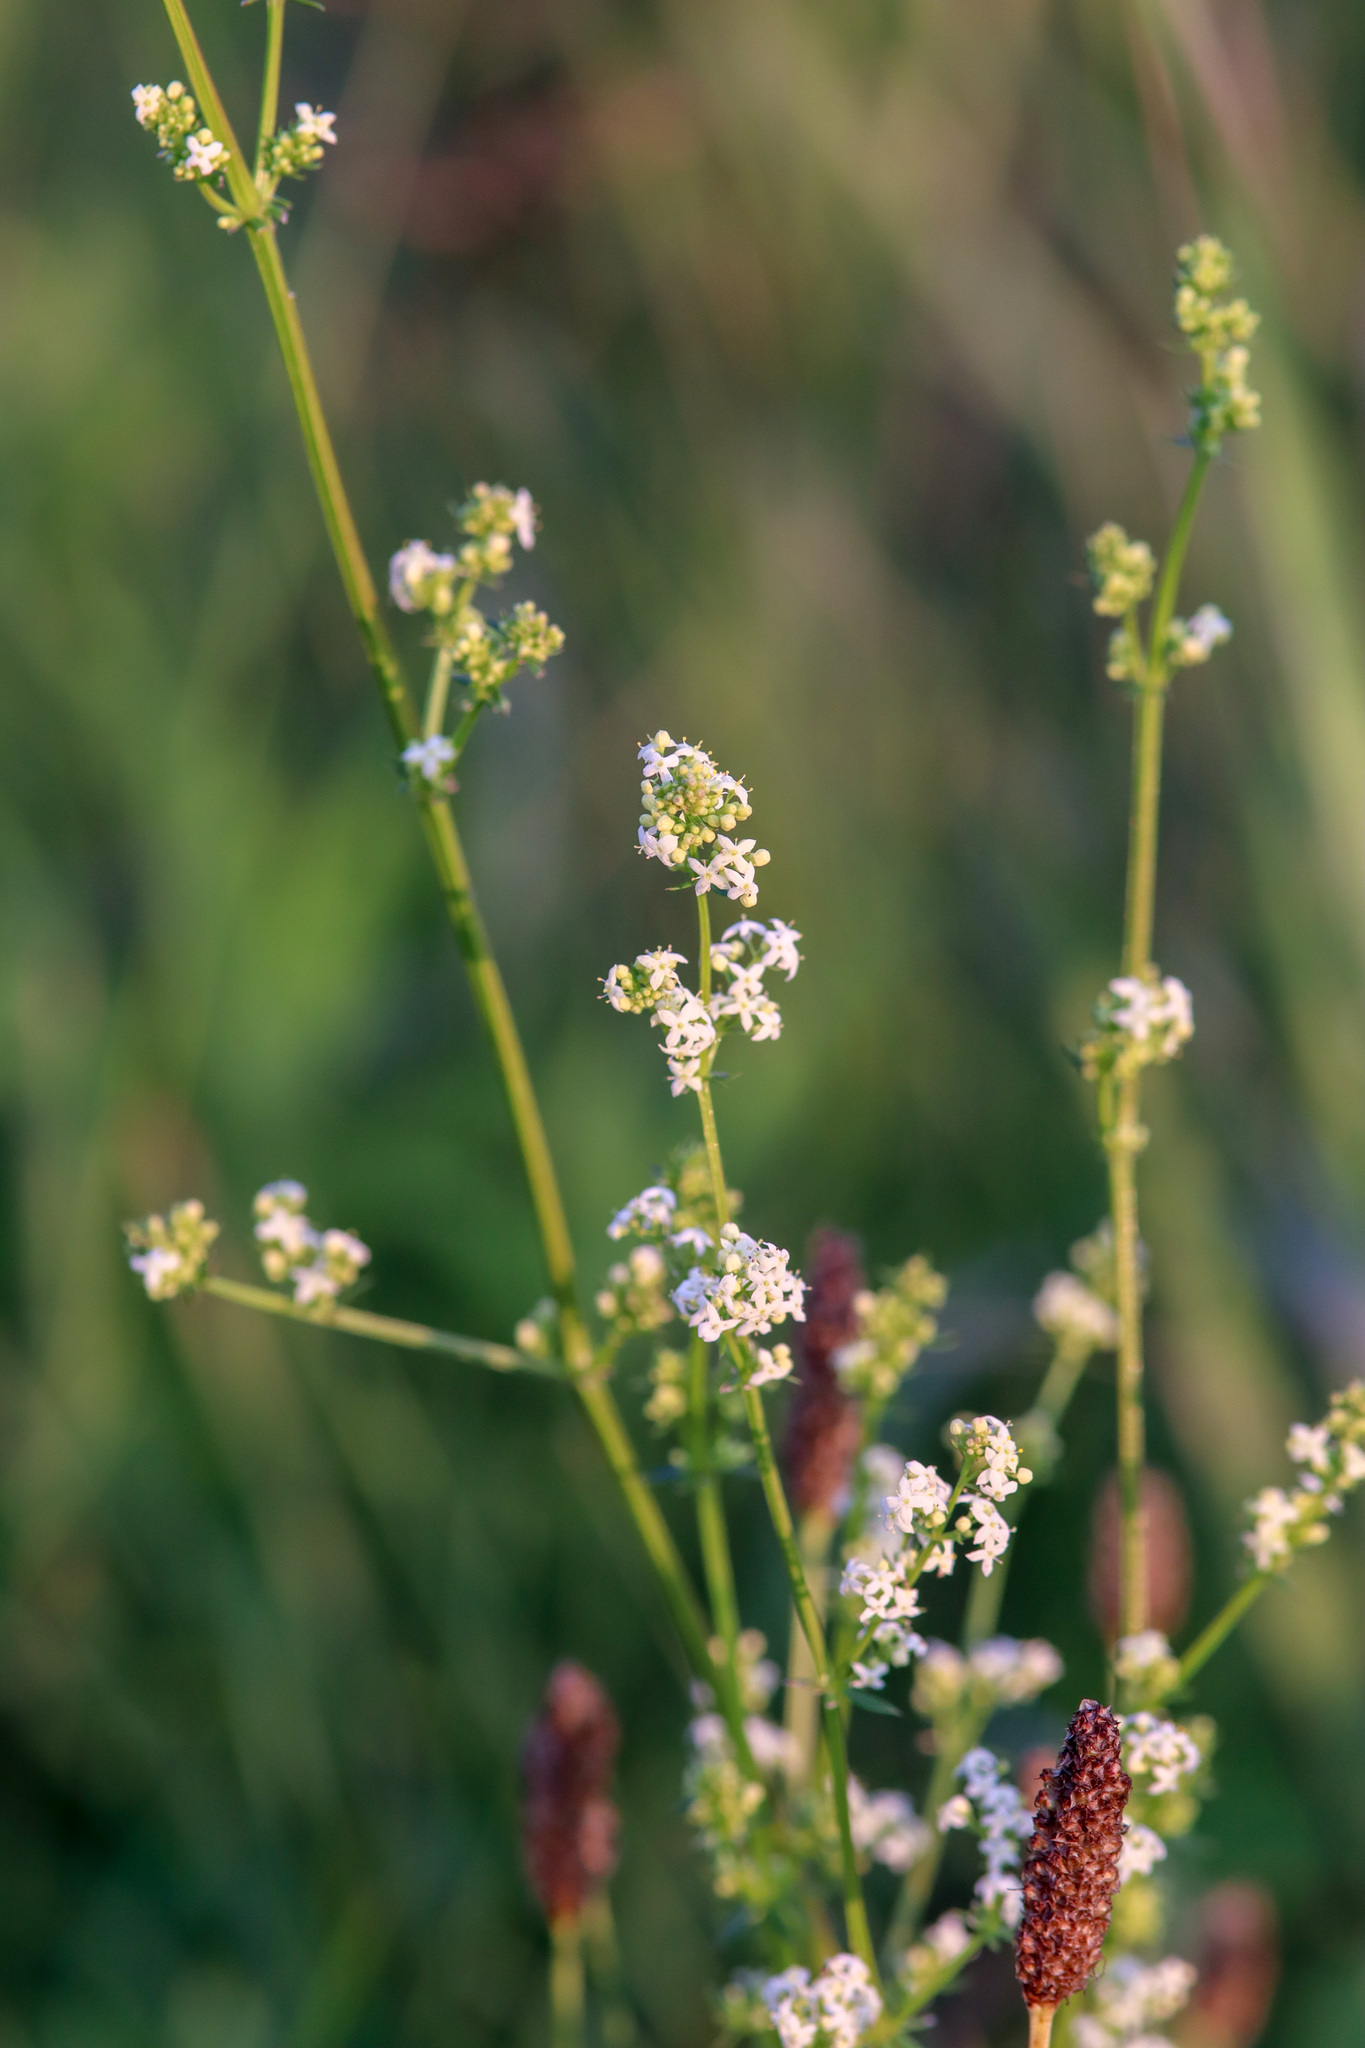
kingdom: Plantae
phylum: Tracheophyta
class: Magnoliopsida
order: Gentianales
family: Rubiaceae
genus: Galium
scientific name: Galium mollugo
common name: Hedge bedstraw
